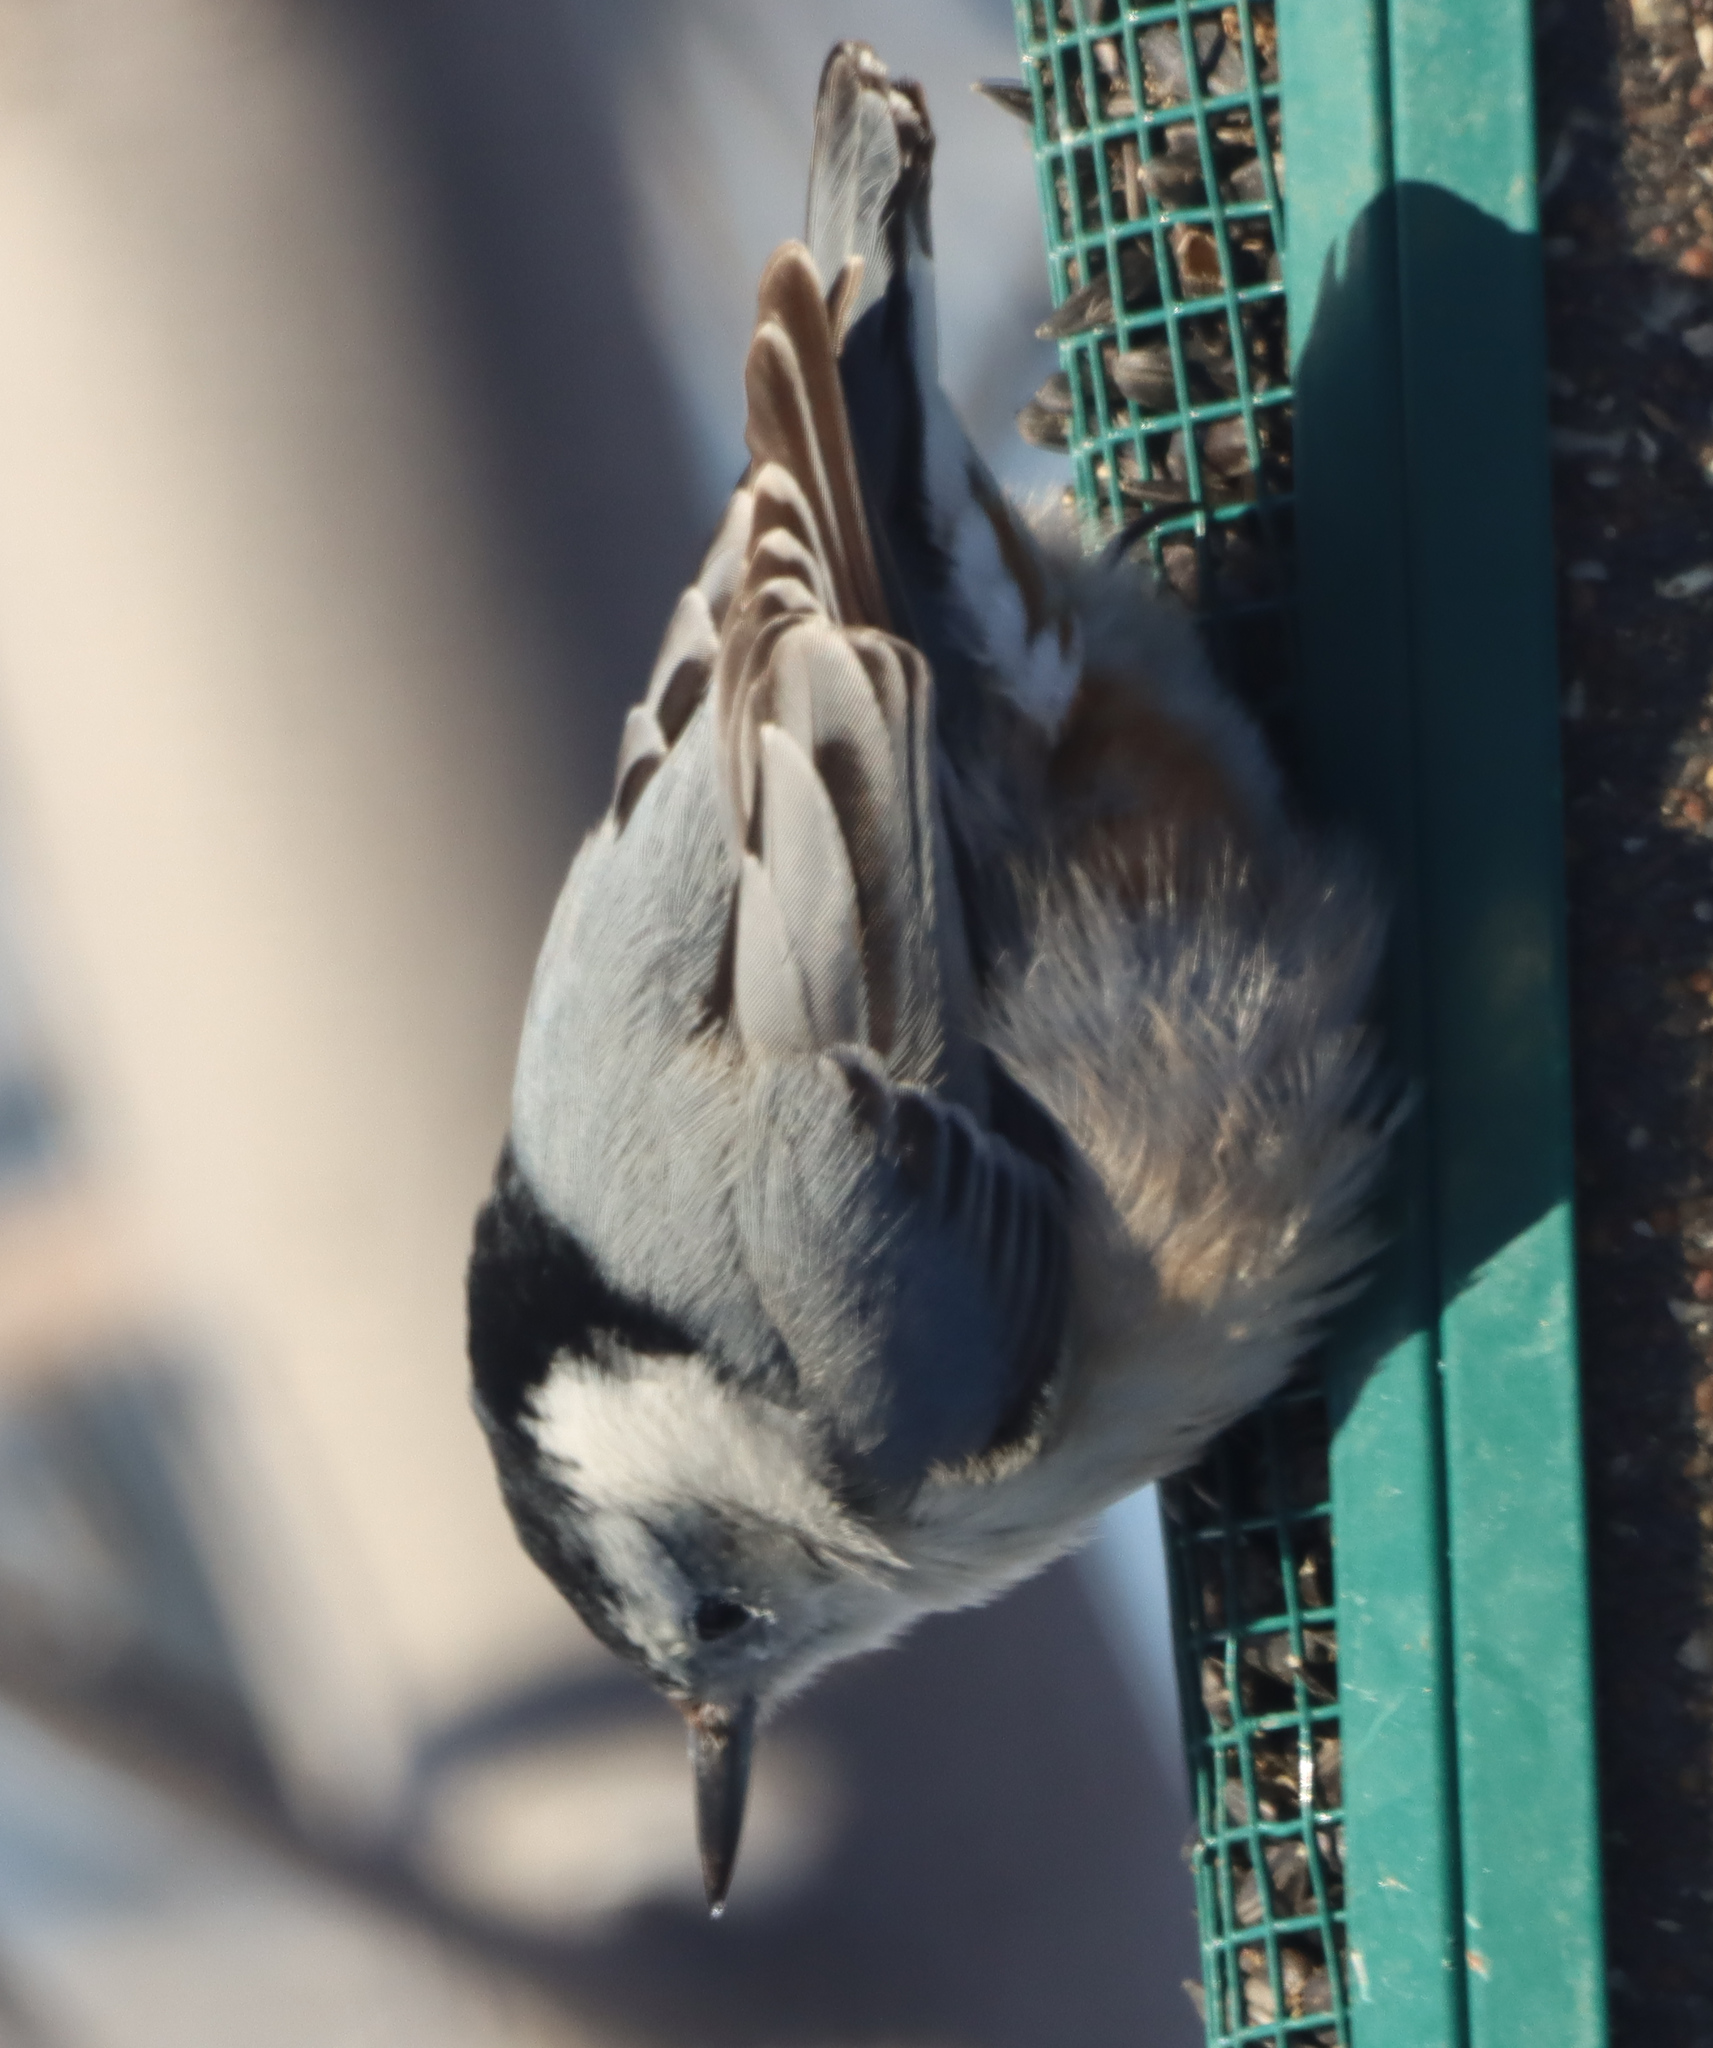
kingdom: Animalia
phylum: Chordata
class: Aves
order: Passeriformes
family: Sittidae
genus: Sitta
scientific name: Sitta carolinensis
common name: White-breasted nuthatch
